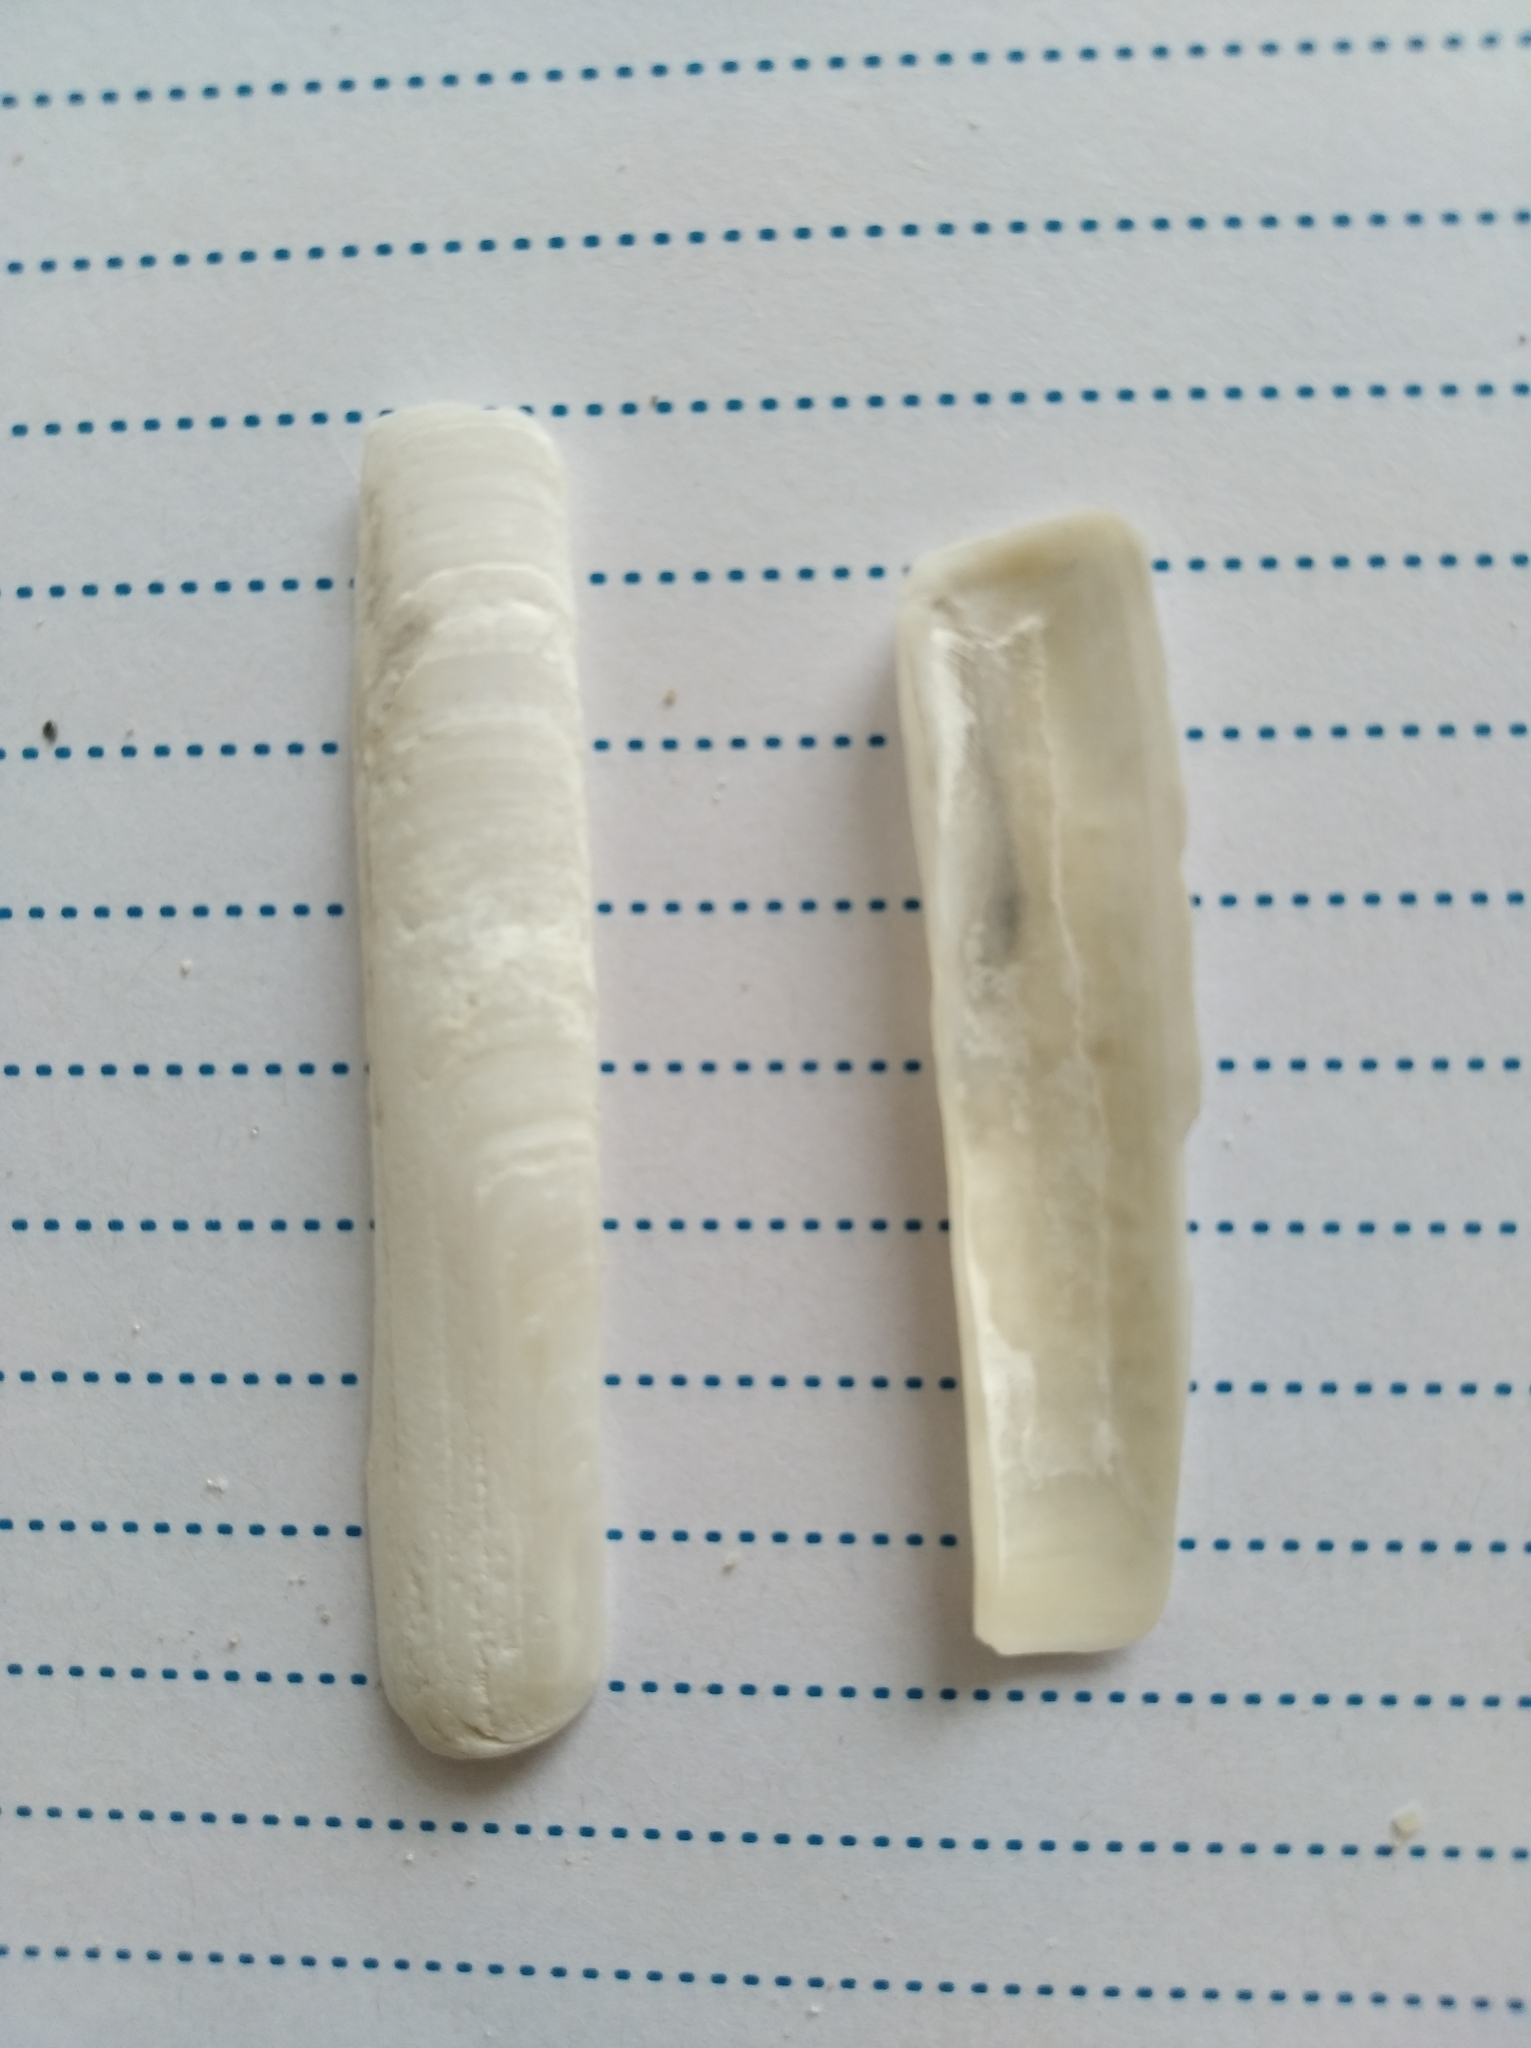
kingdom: Animalia
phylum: Mollusca
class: Bivalvia
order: Adapedonta
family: Solenidae
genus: Solen
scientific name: Solen marginatus
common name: Grooved razor shell
